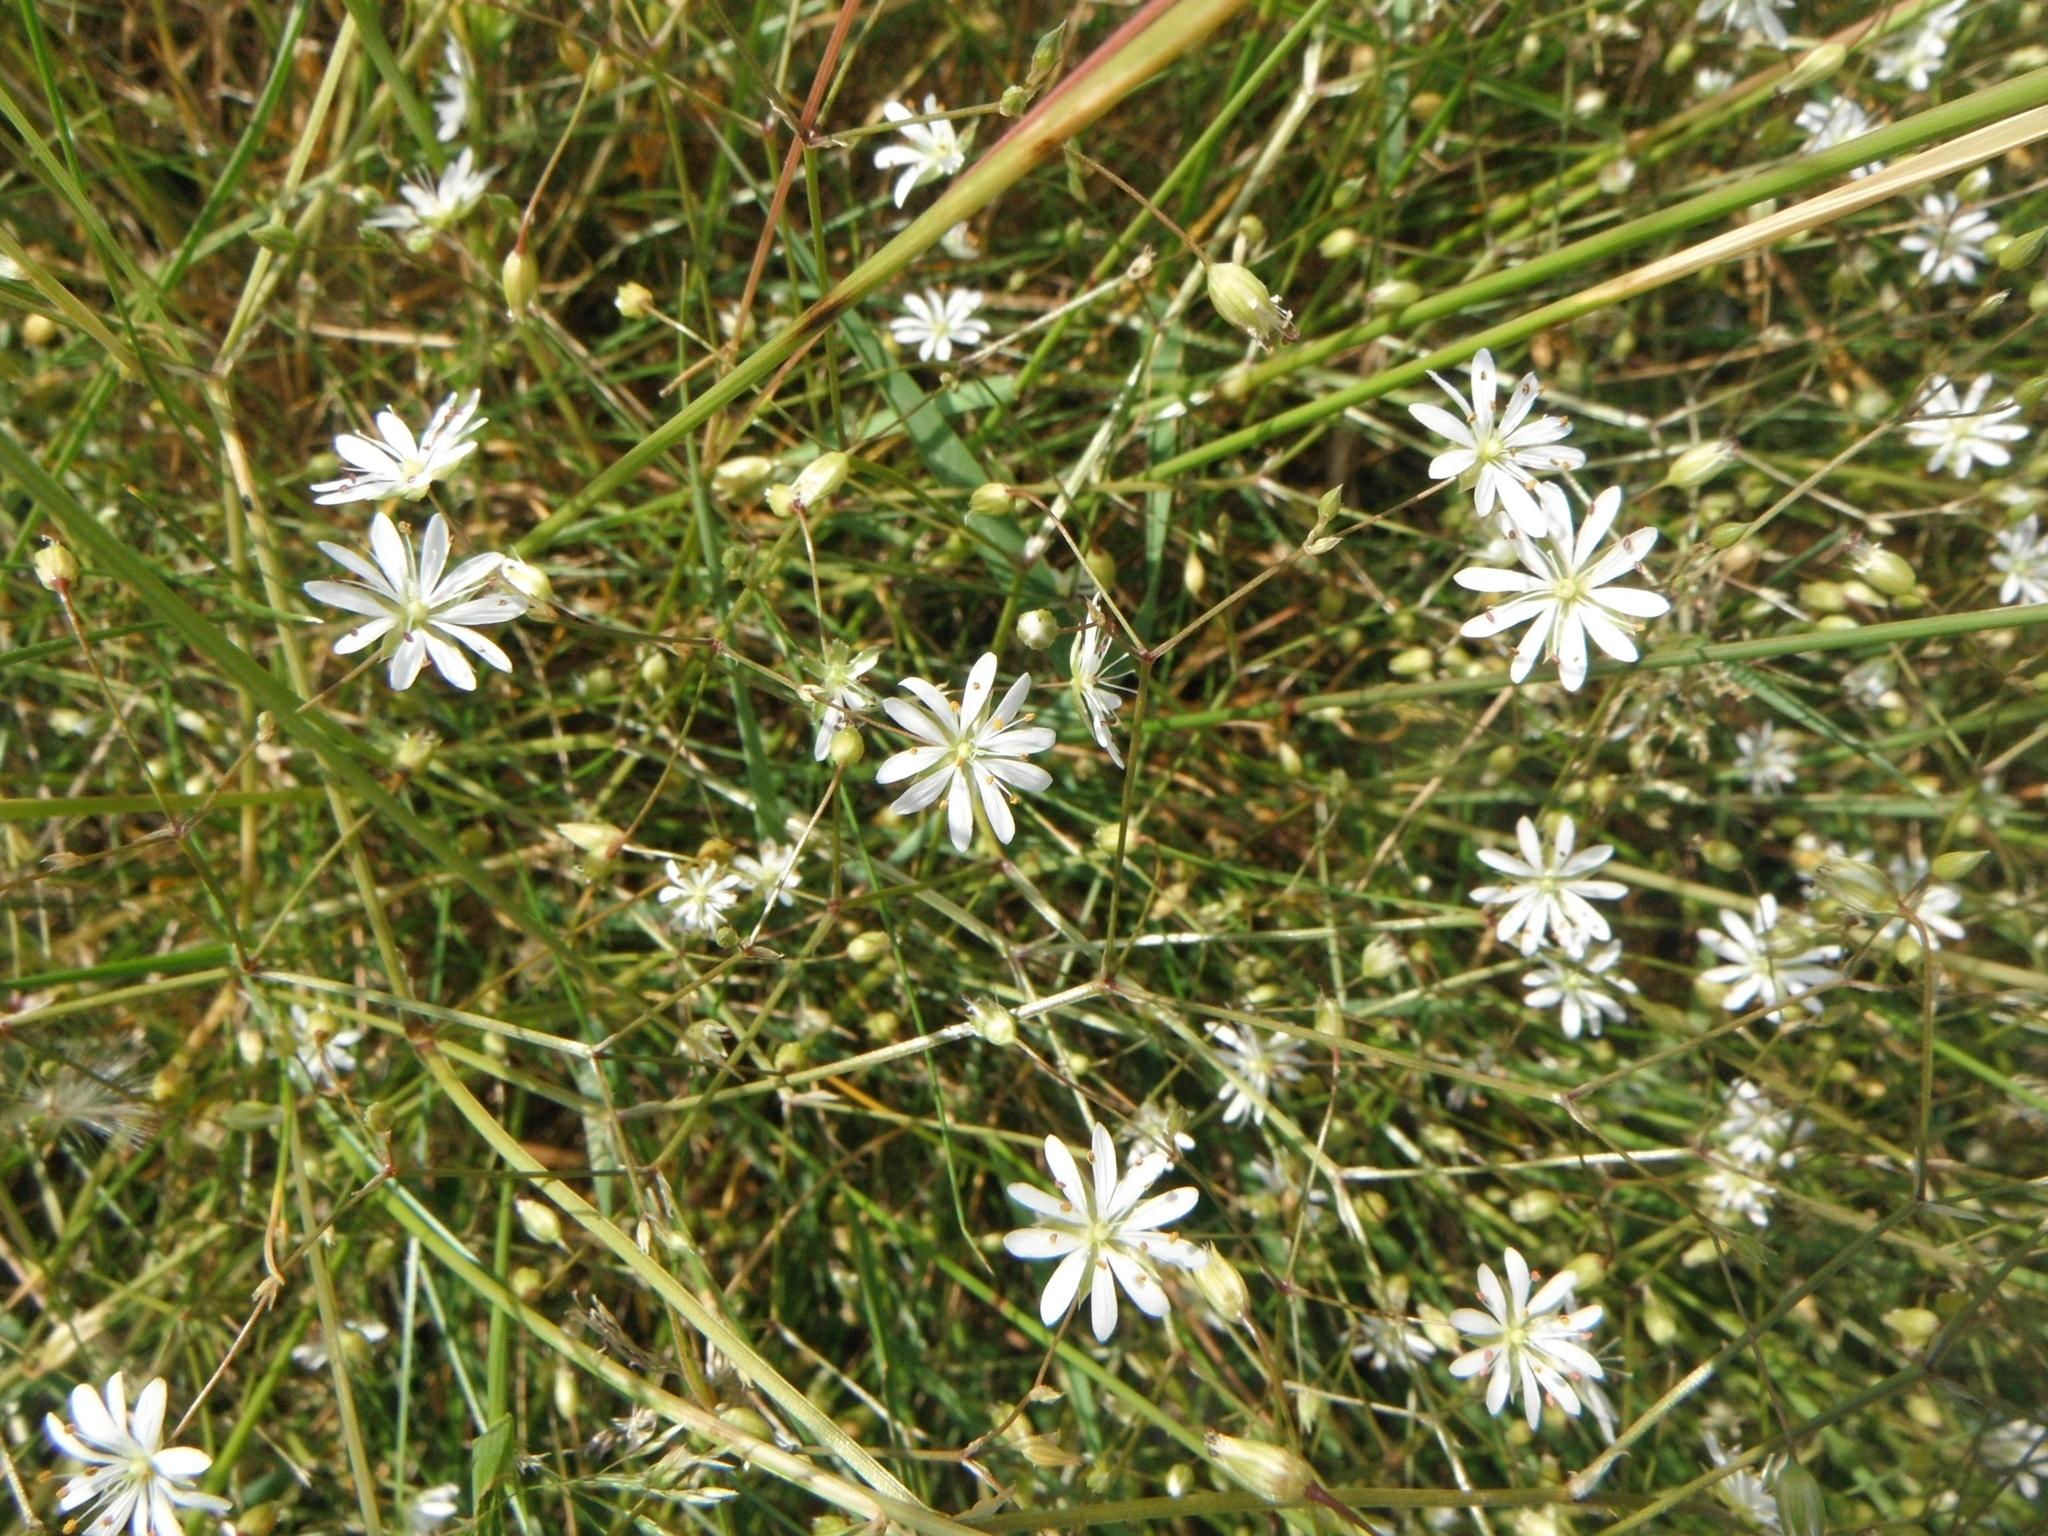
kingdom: Plantae
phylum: Tracheophyta
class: Magnoliopsida
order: Caryophyllales
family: Caryophyllaceae
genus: Stellaria
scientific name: Stellaria graminea
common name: Grass-like starwort
